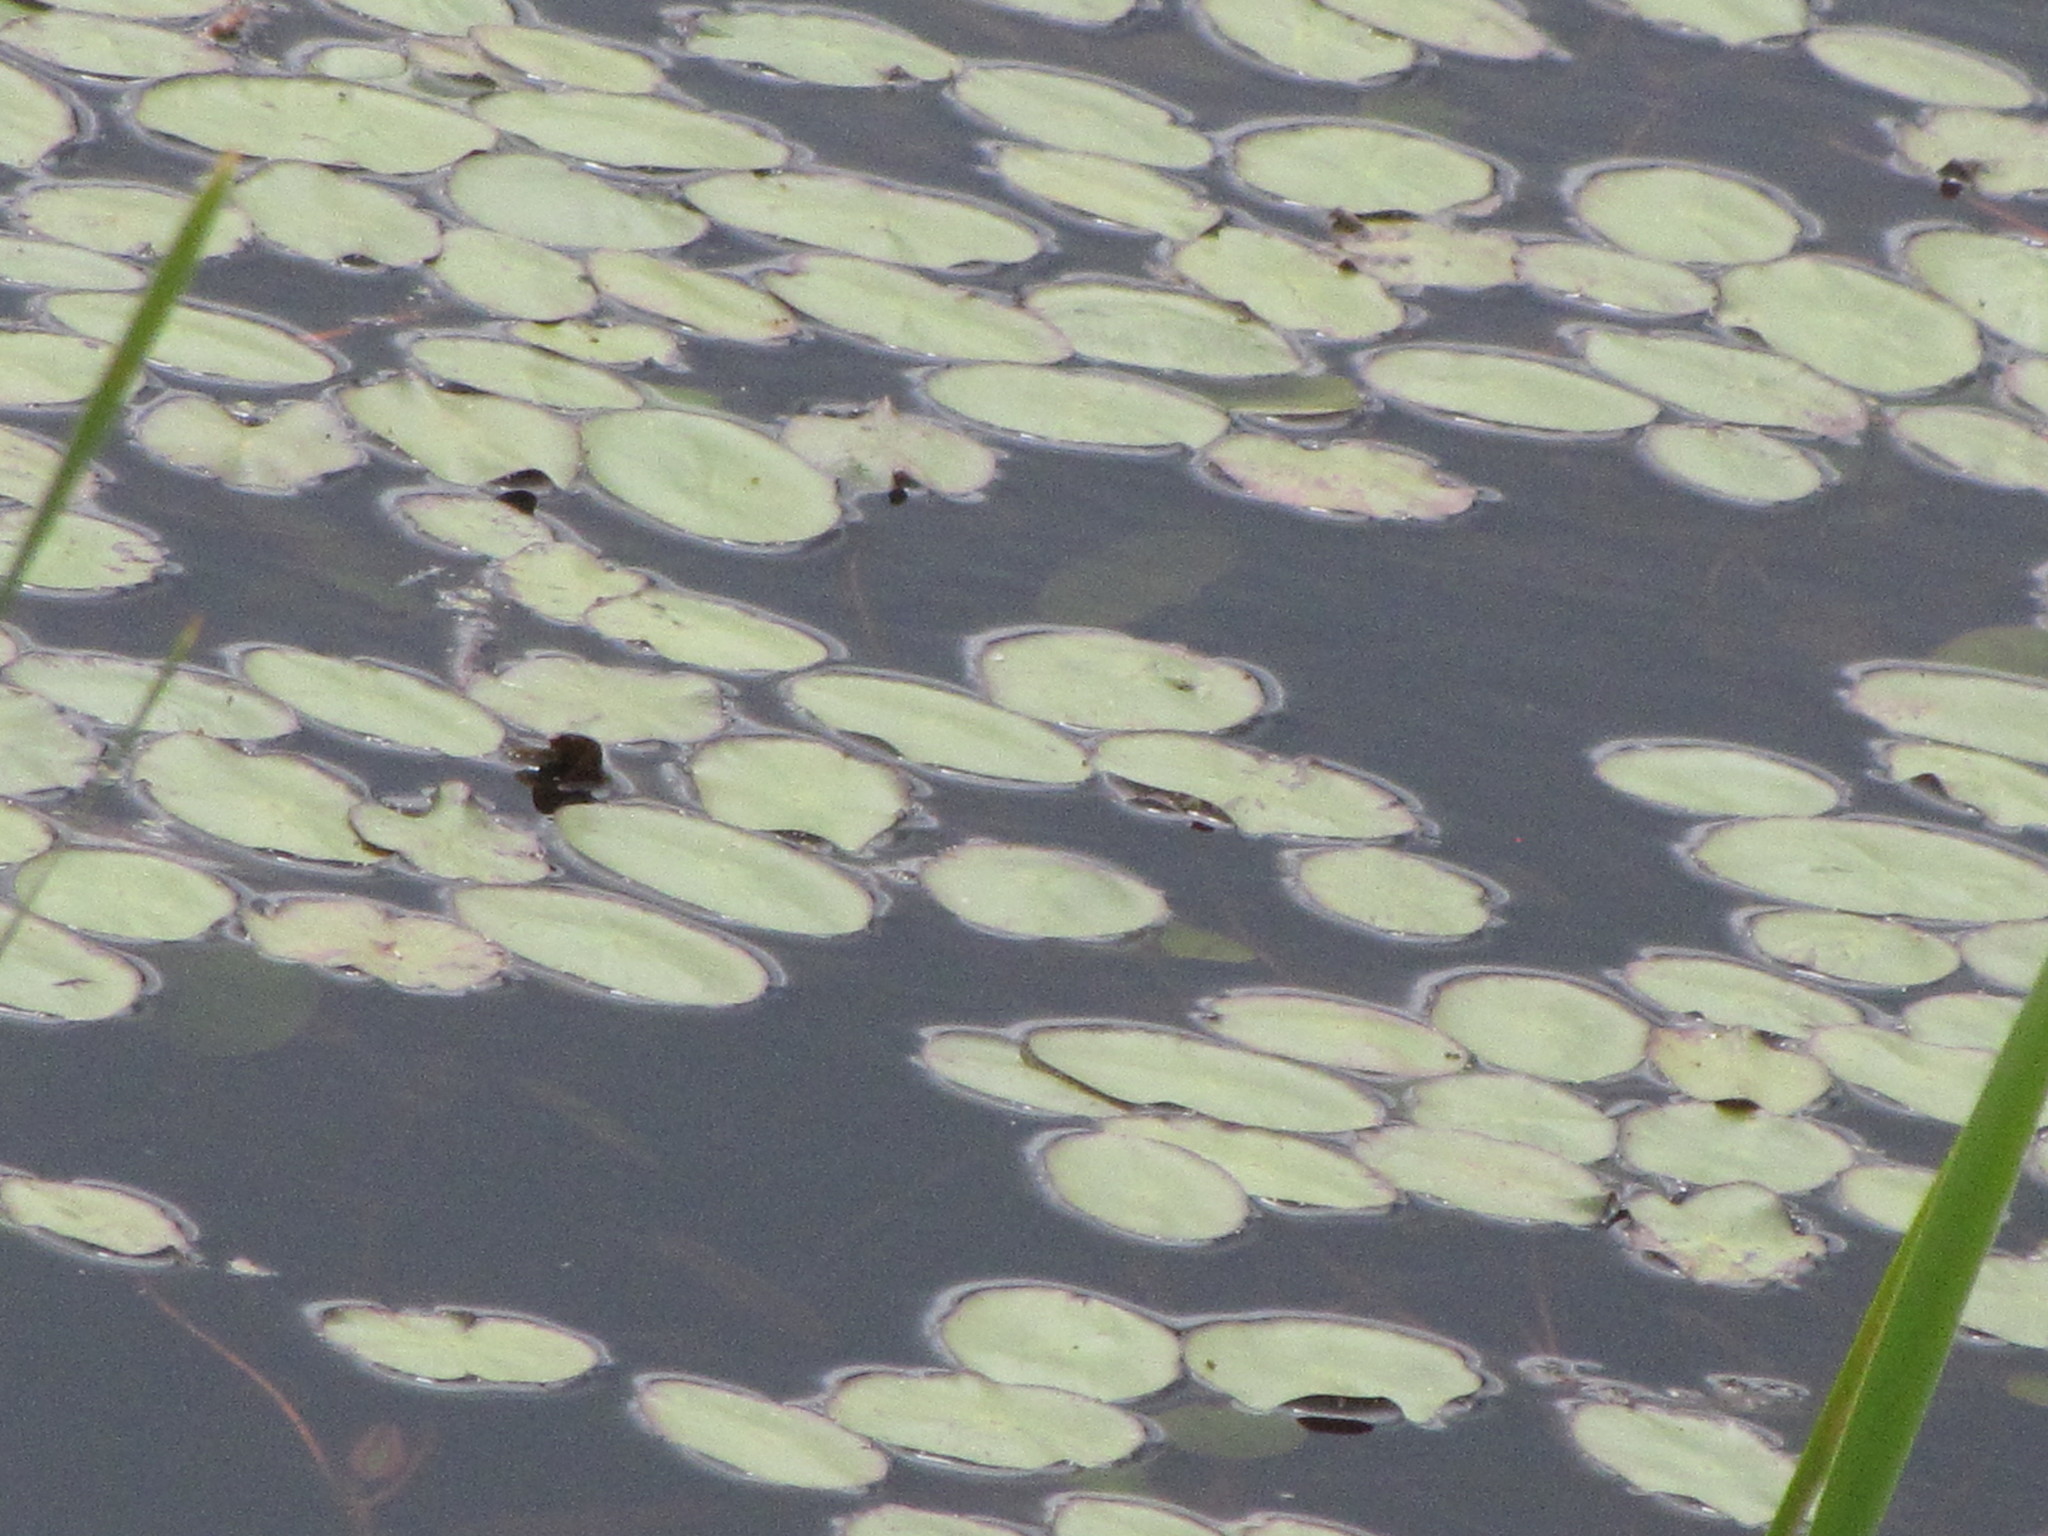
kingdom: Plantae
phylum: Tracheophyta
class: Magnoliopsida
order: Nymphaeales
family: Cabombaceae
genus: Brasenia
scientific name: Brasenia schreberi
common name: Water-shield
